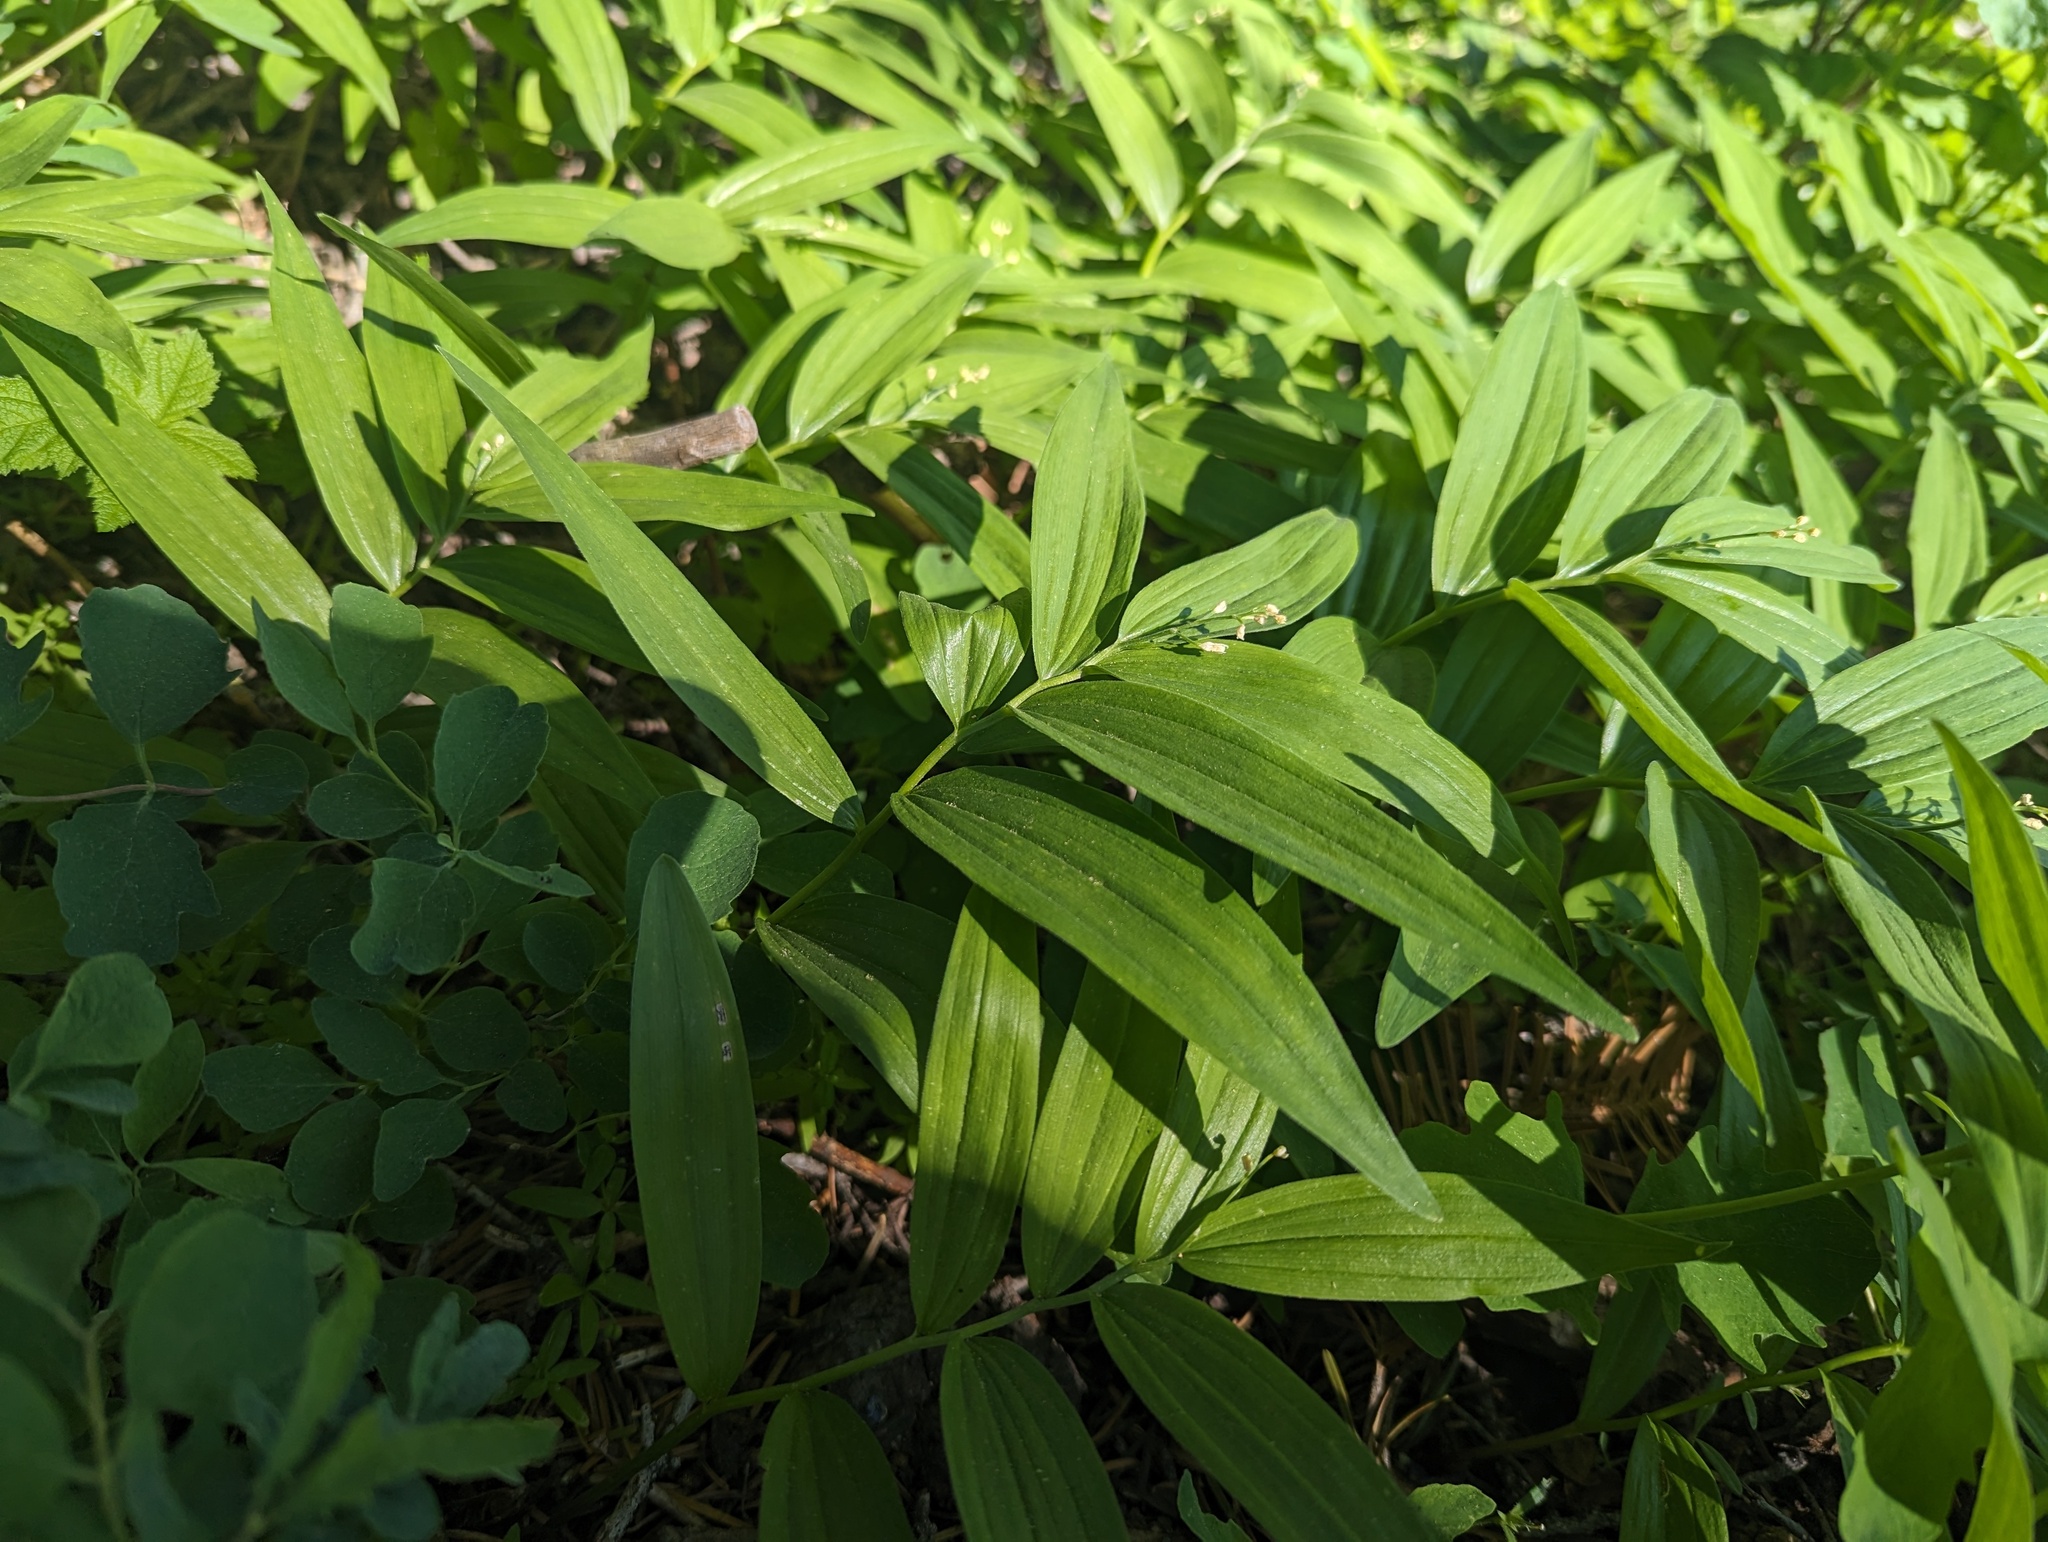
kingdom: Plantae
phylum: Tracheophyta
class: Liliopsida
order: Asparagales
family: Asparagaceae
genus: Maianthemum
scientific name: Maianthemum stellatum
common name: Little false solomon's seal
